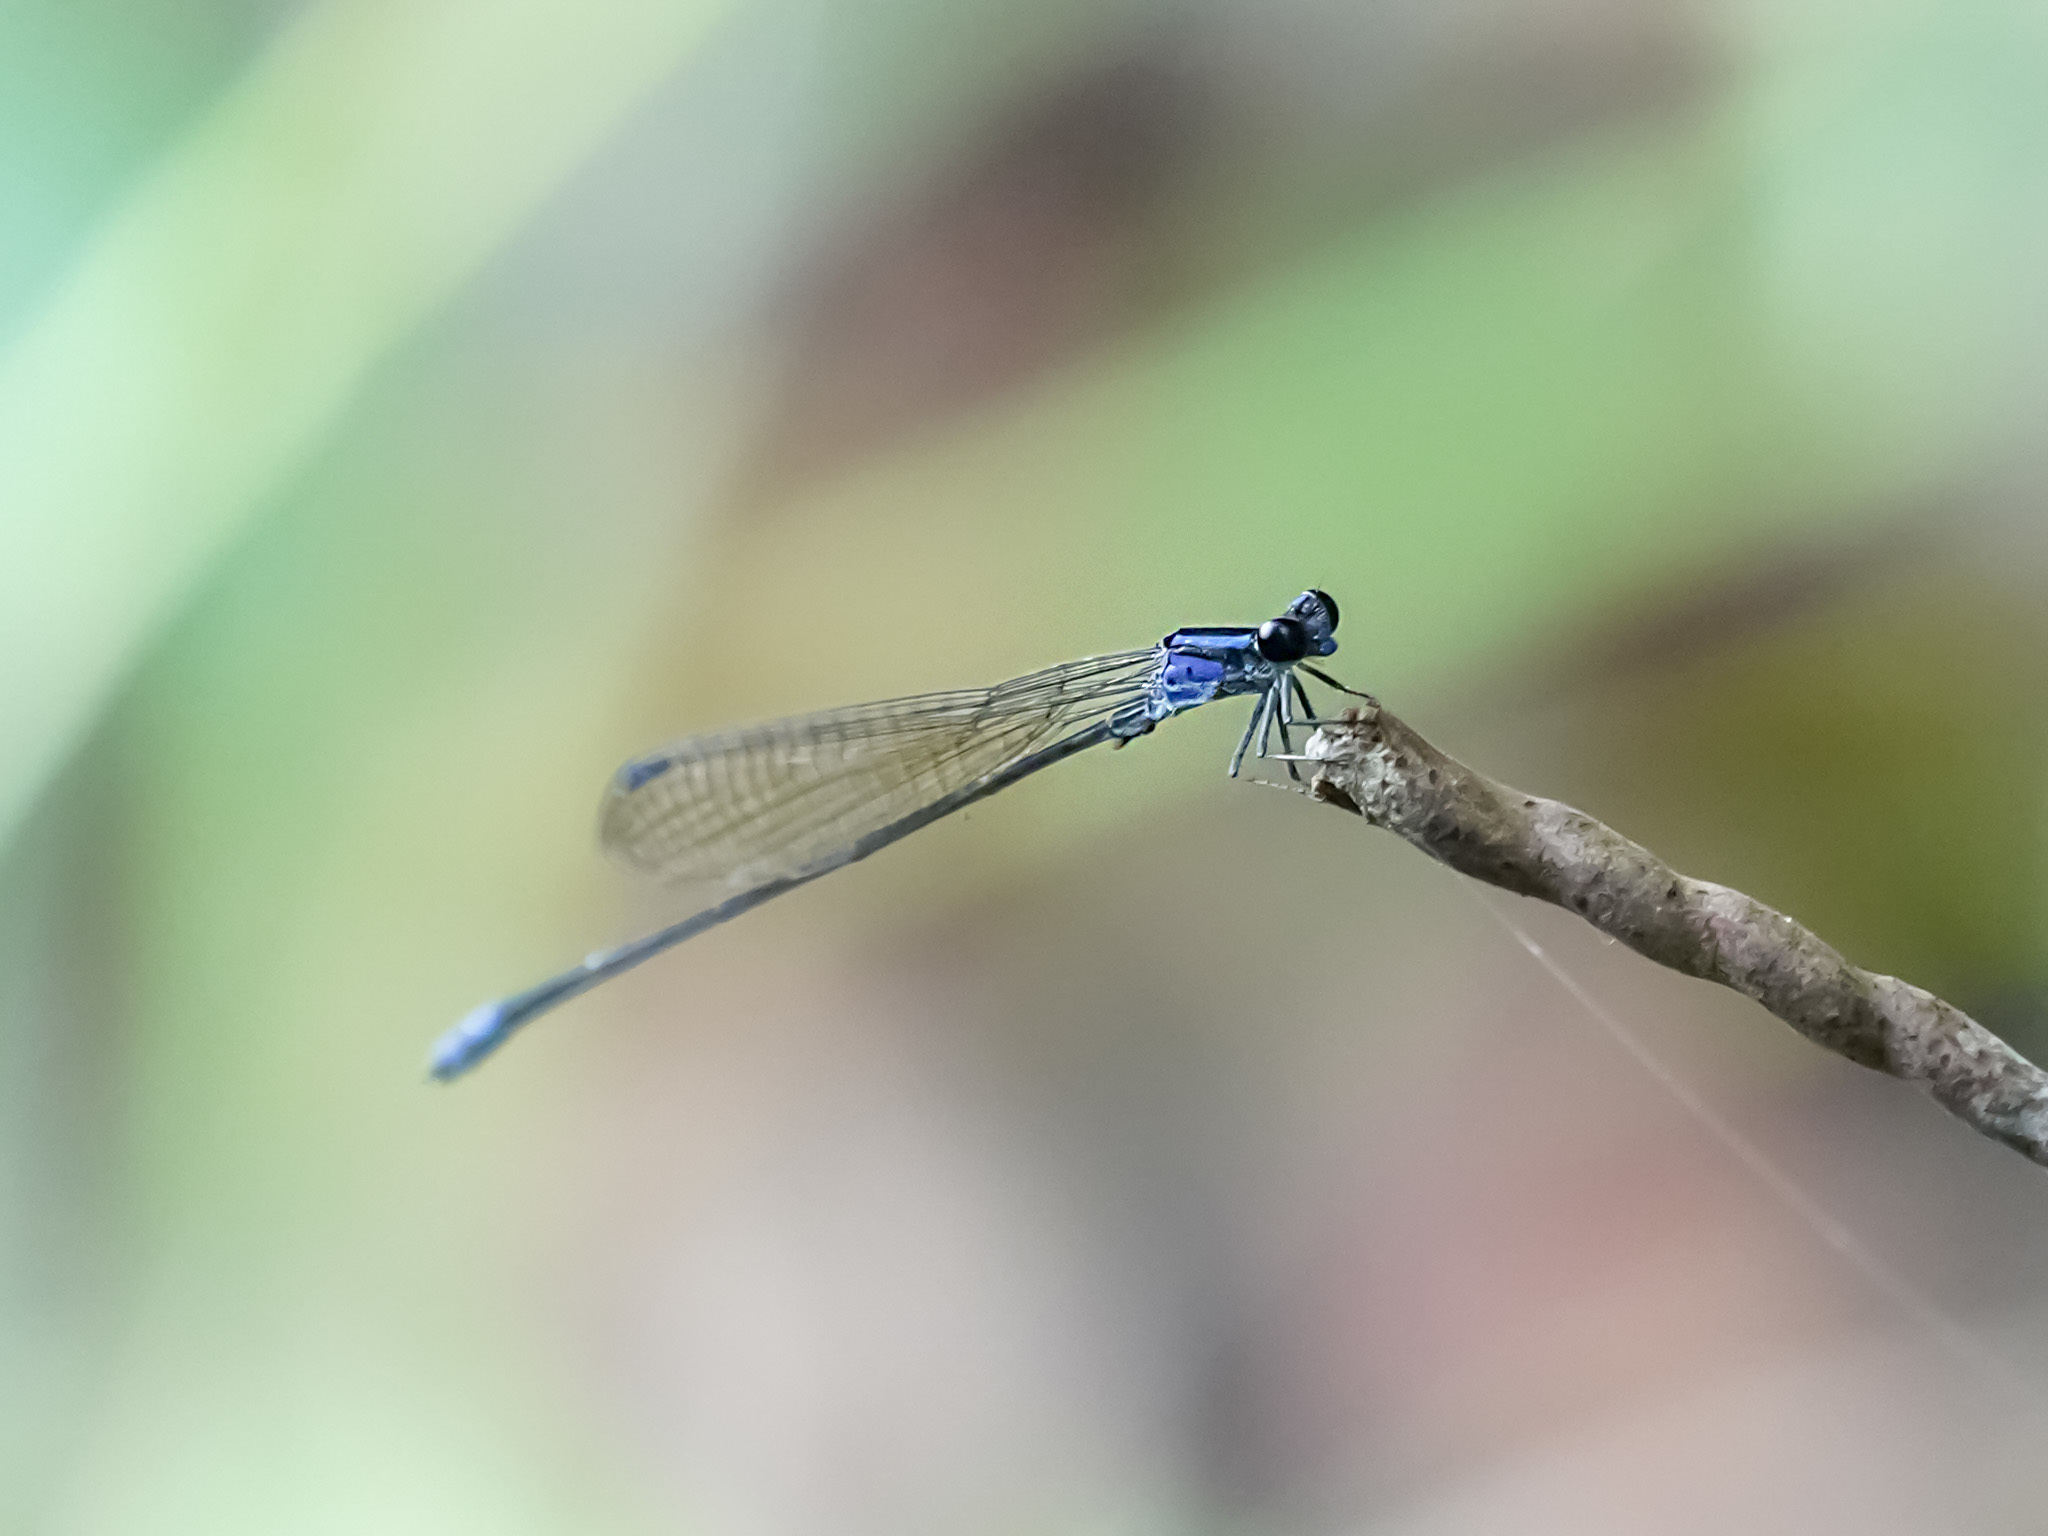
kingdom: Animalia
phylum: Arthropoda
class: Insecta
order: Odonata
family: Coenagrionidae
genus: Archibasis
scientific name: Archibasis viola
